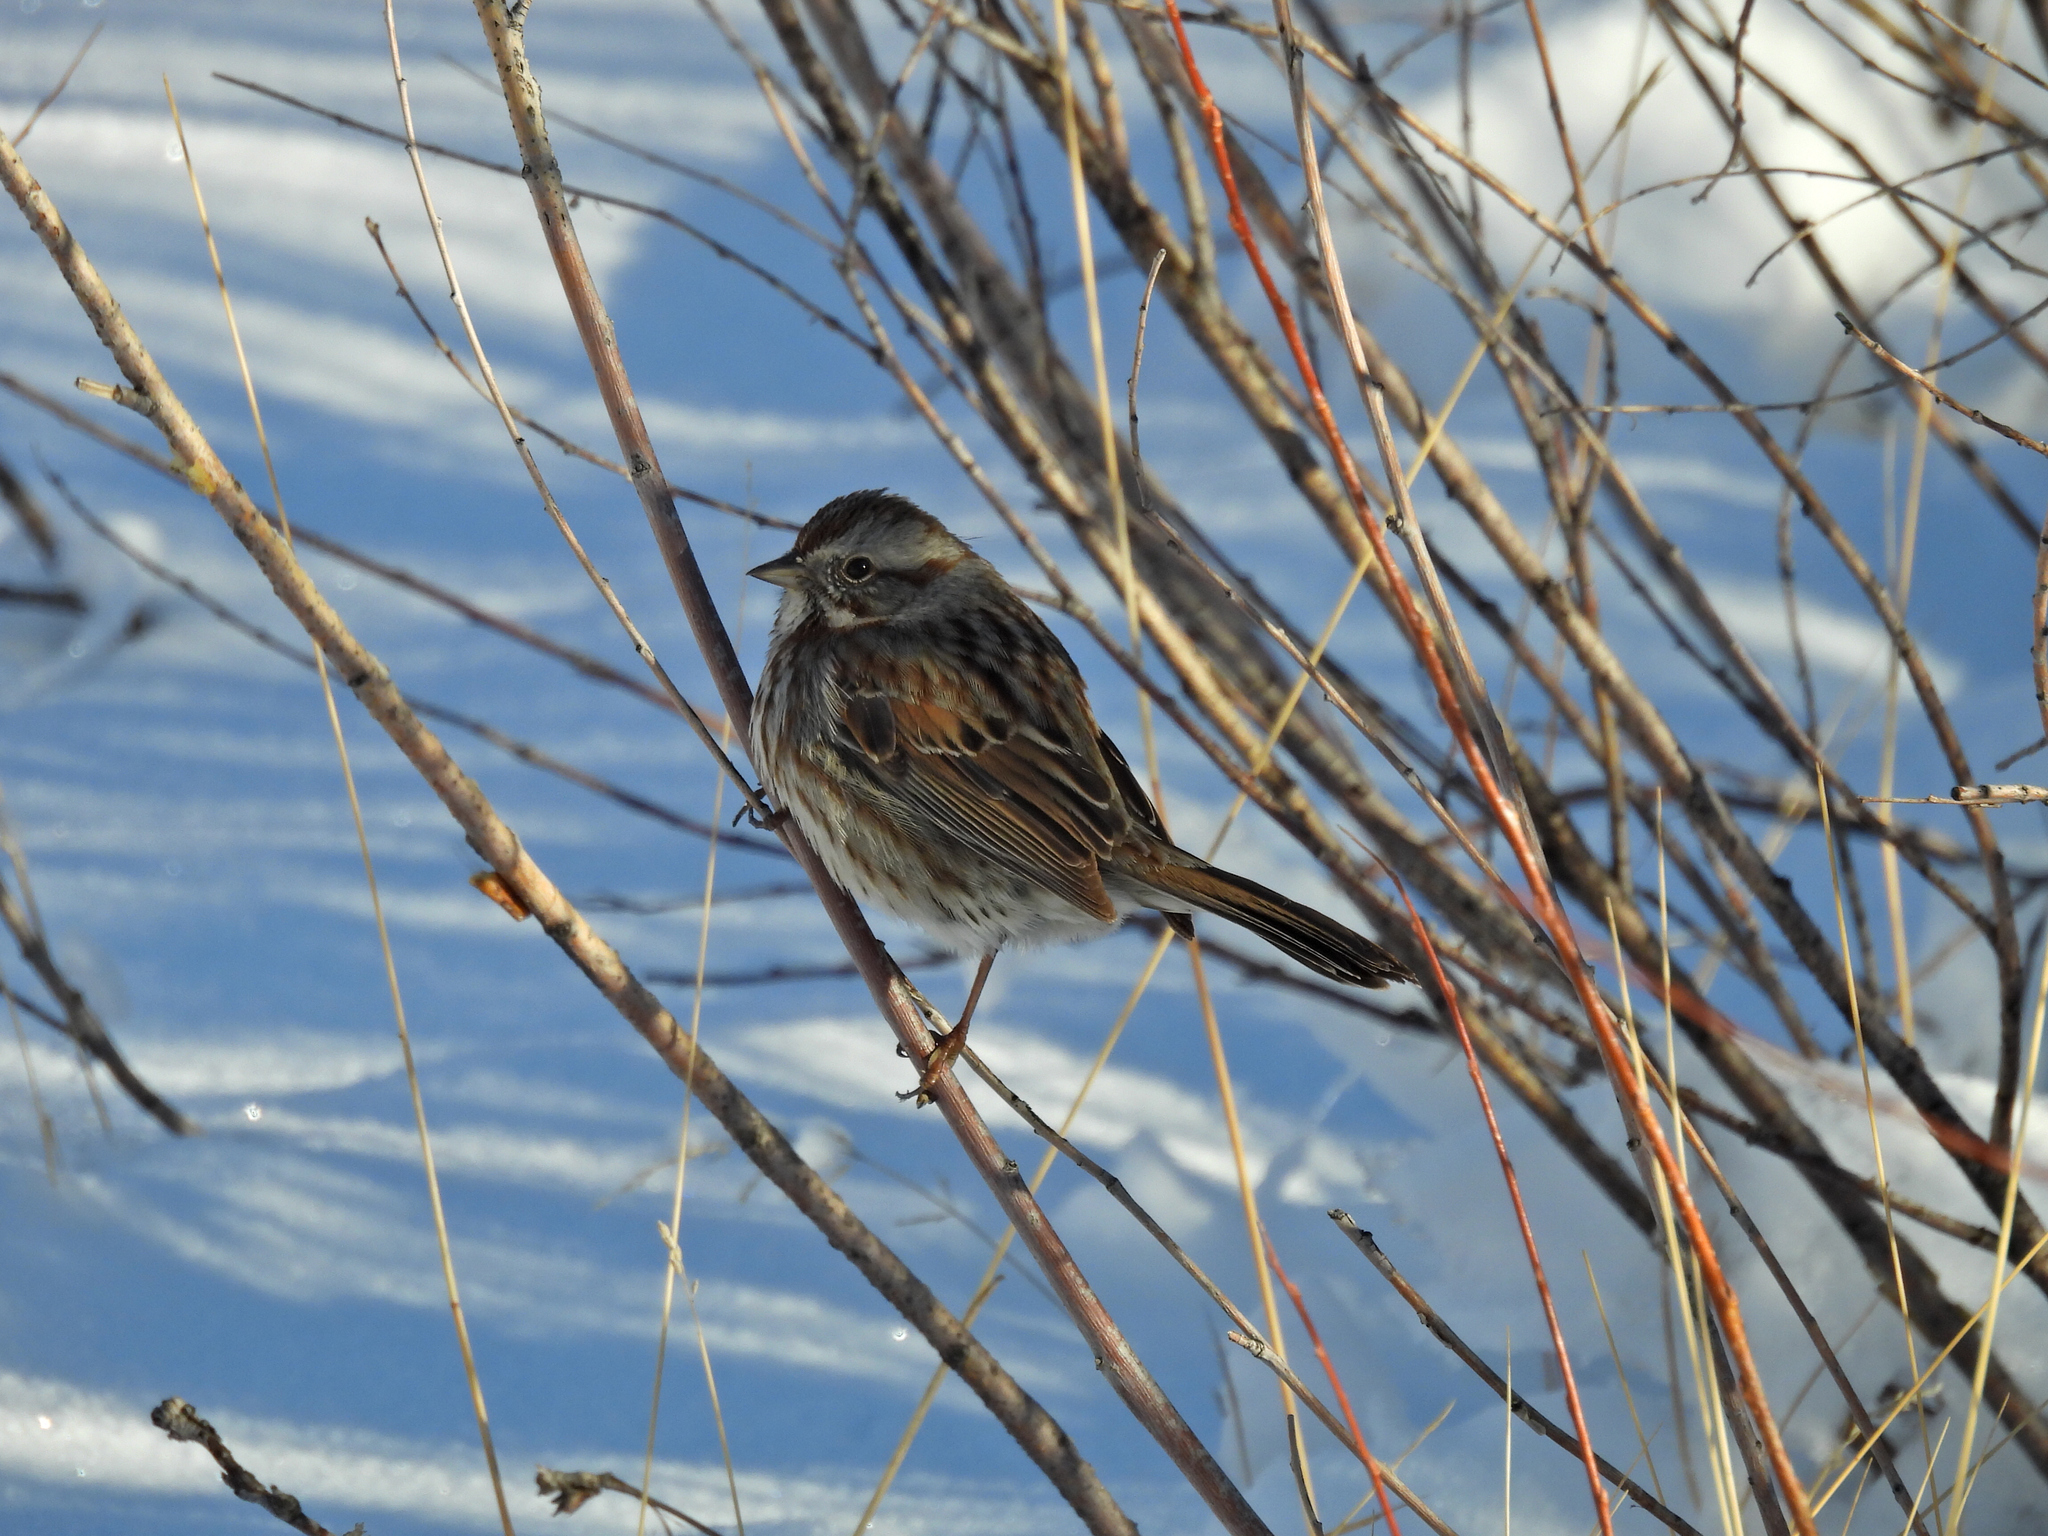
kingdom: Animalia
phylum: Chordata
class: Aves
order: Passeriformes
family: Passerellidae
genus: Melospiza
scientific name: Melospiza melodia
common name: Song sparrow
